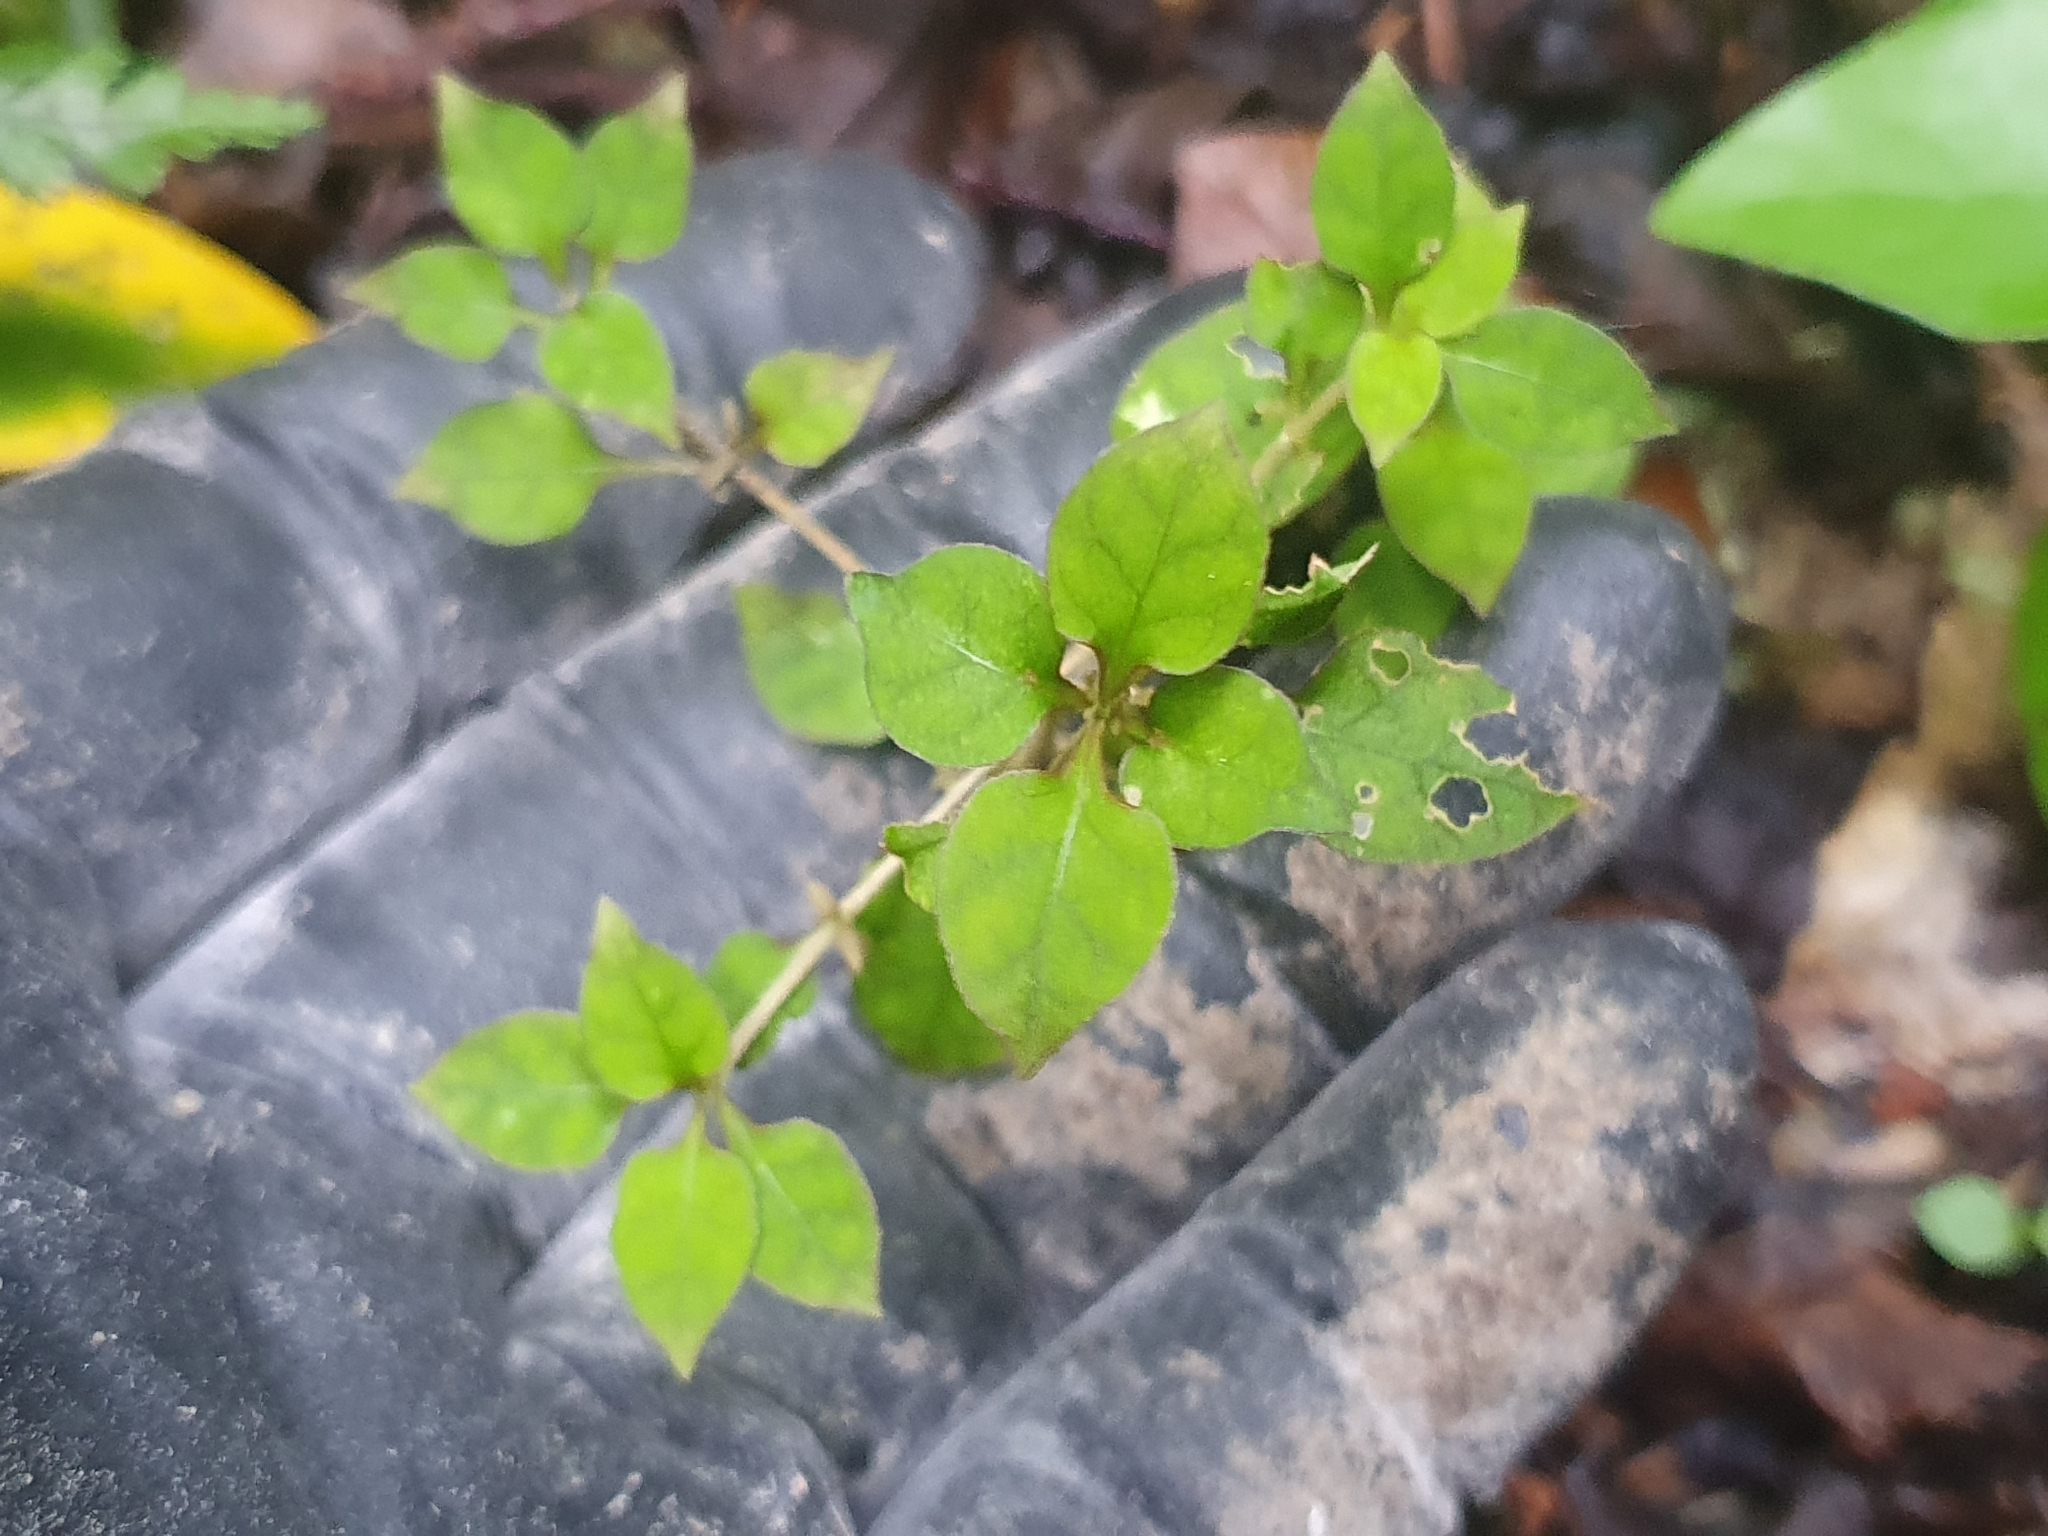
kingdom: Plantae
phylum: Tracheophyta
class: Magnoliopsida
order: Gentianales
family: Rubiaceae
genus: Coprosma
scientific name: Coprosma areolata
